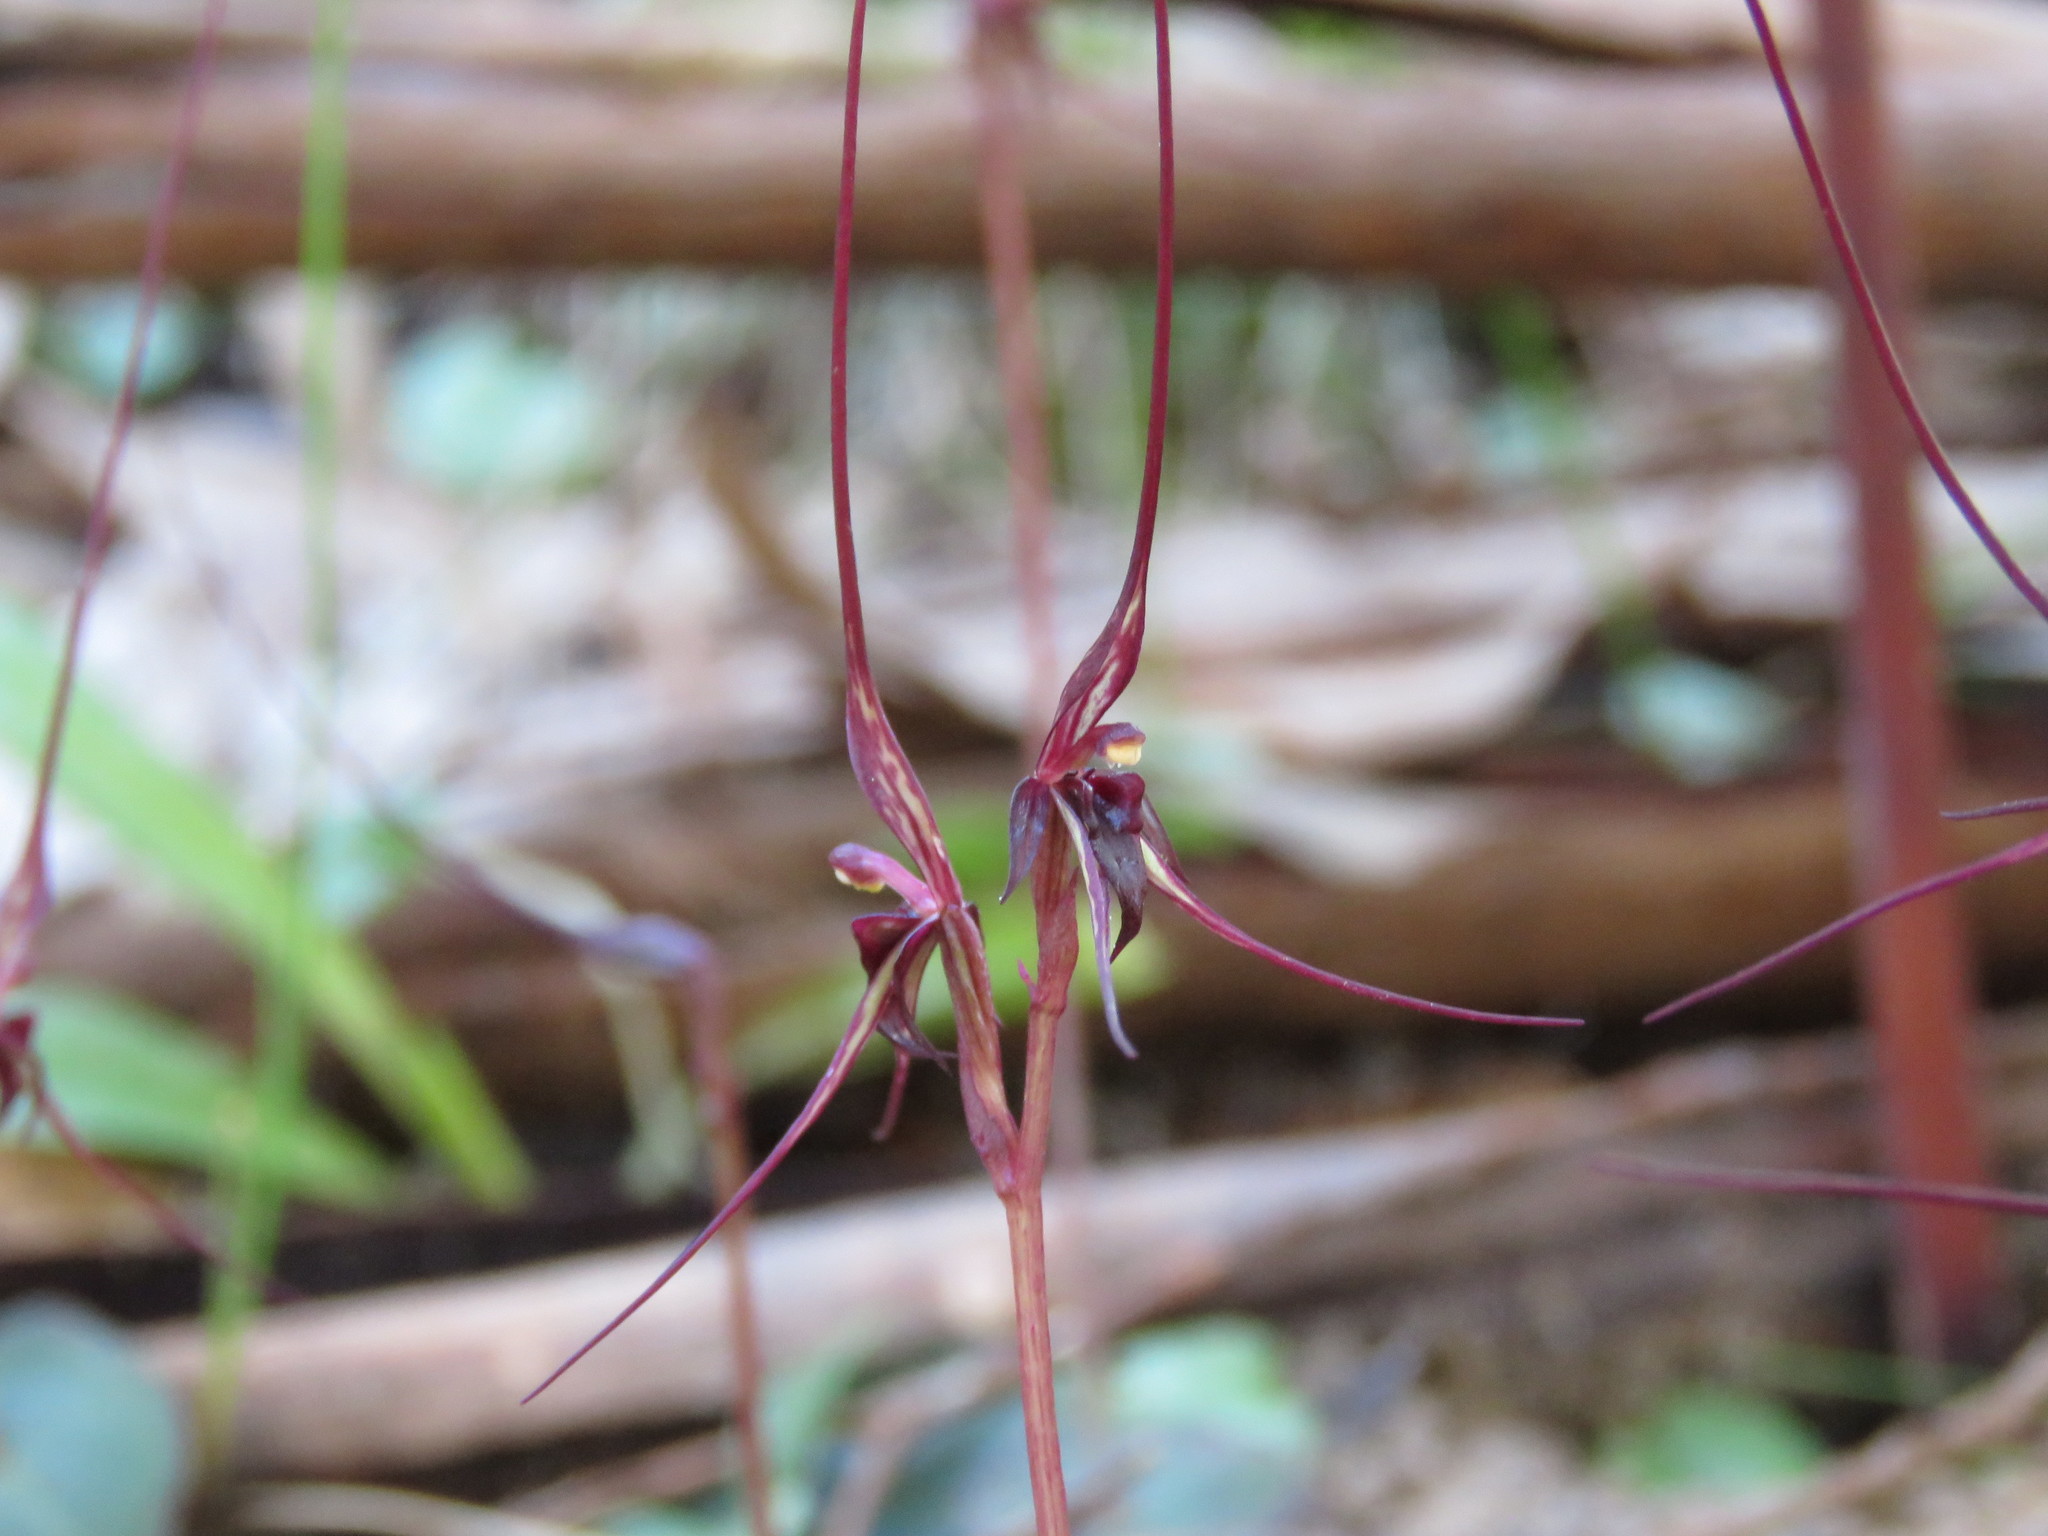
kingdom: Plantae
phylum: Tracheophyta
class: Liliopsida
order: Asparagales
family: Orchidaceae
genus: Acianthus
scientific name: Acianthus caudatus
